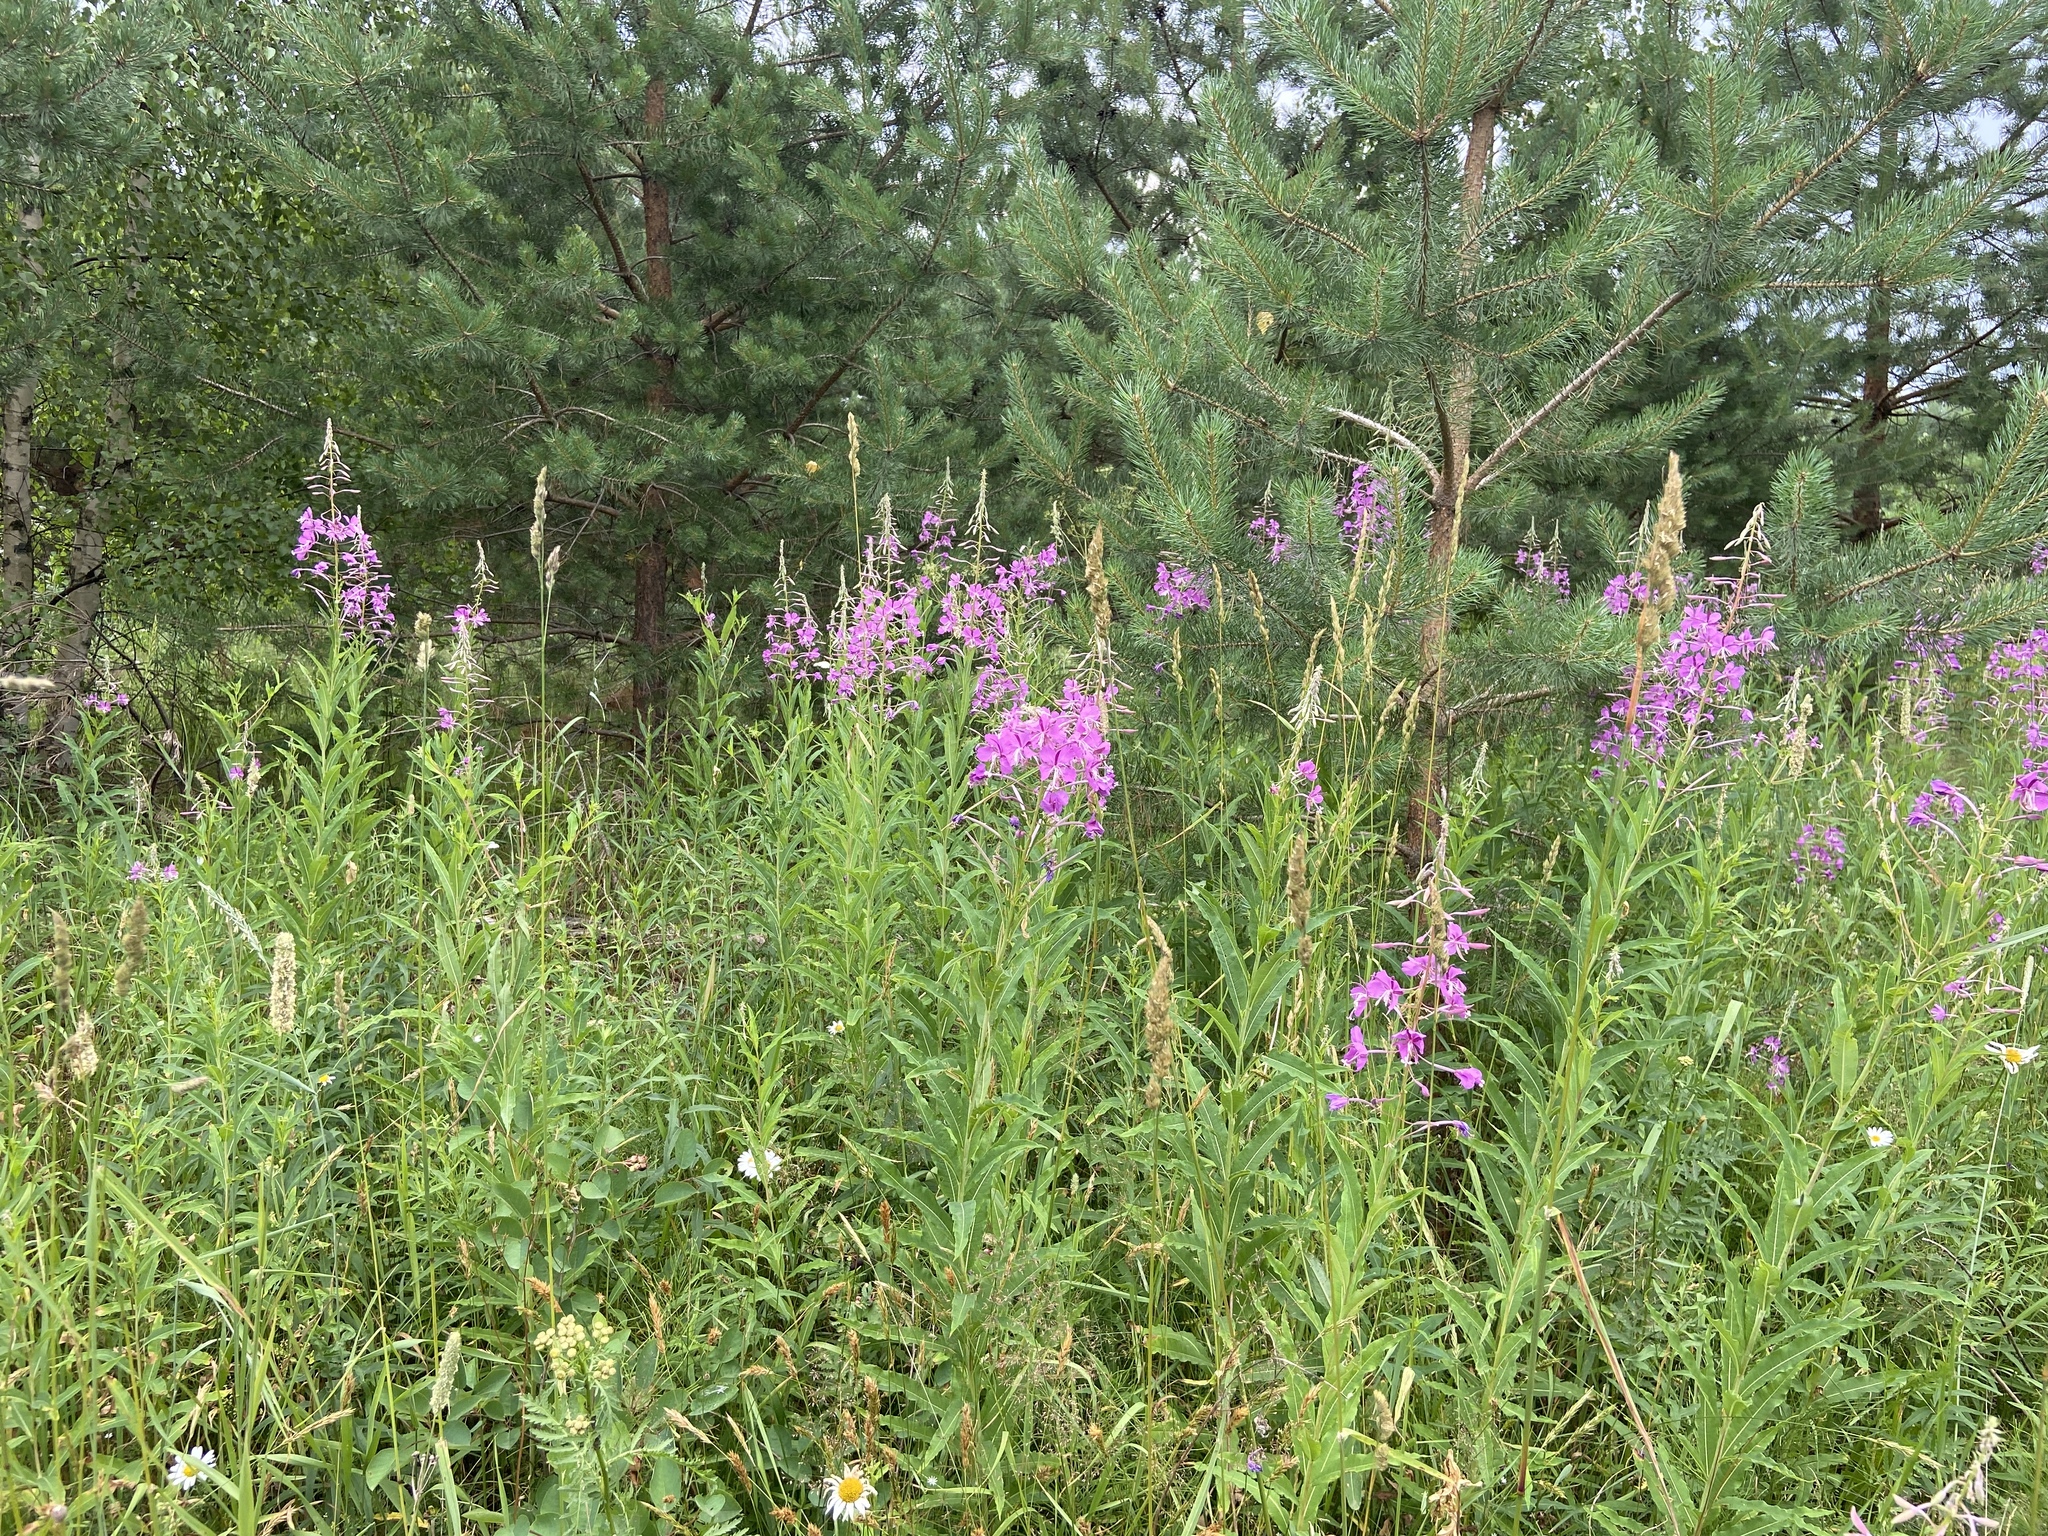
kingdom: Plantae
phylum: Tracheophyta
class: Magnoliopsida
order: Myrtales
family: Onagraceae
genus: Chamaenerion
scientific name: Chamaenerion angustifolium
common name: Fireweed
